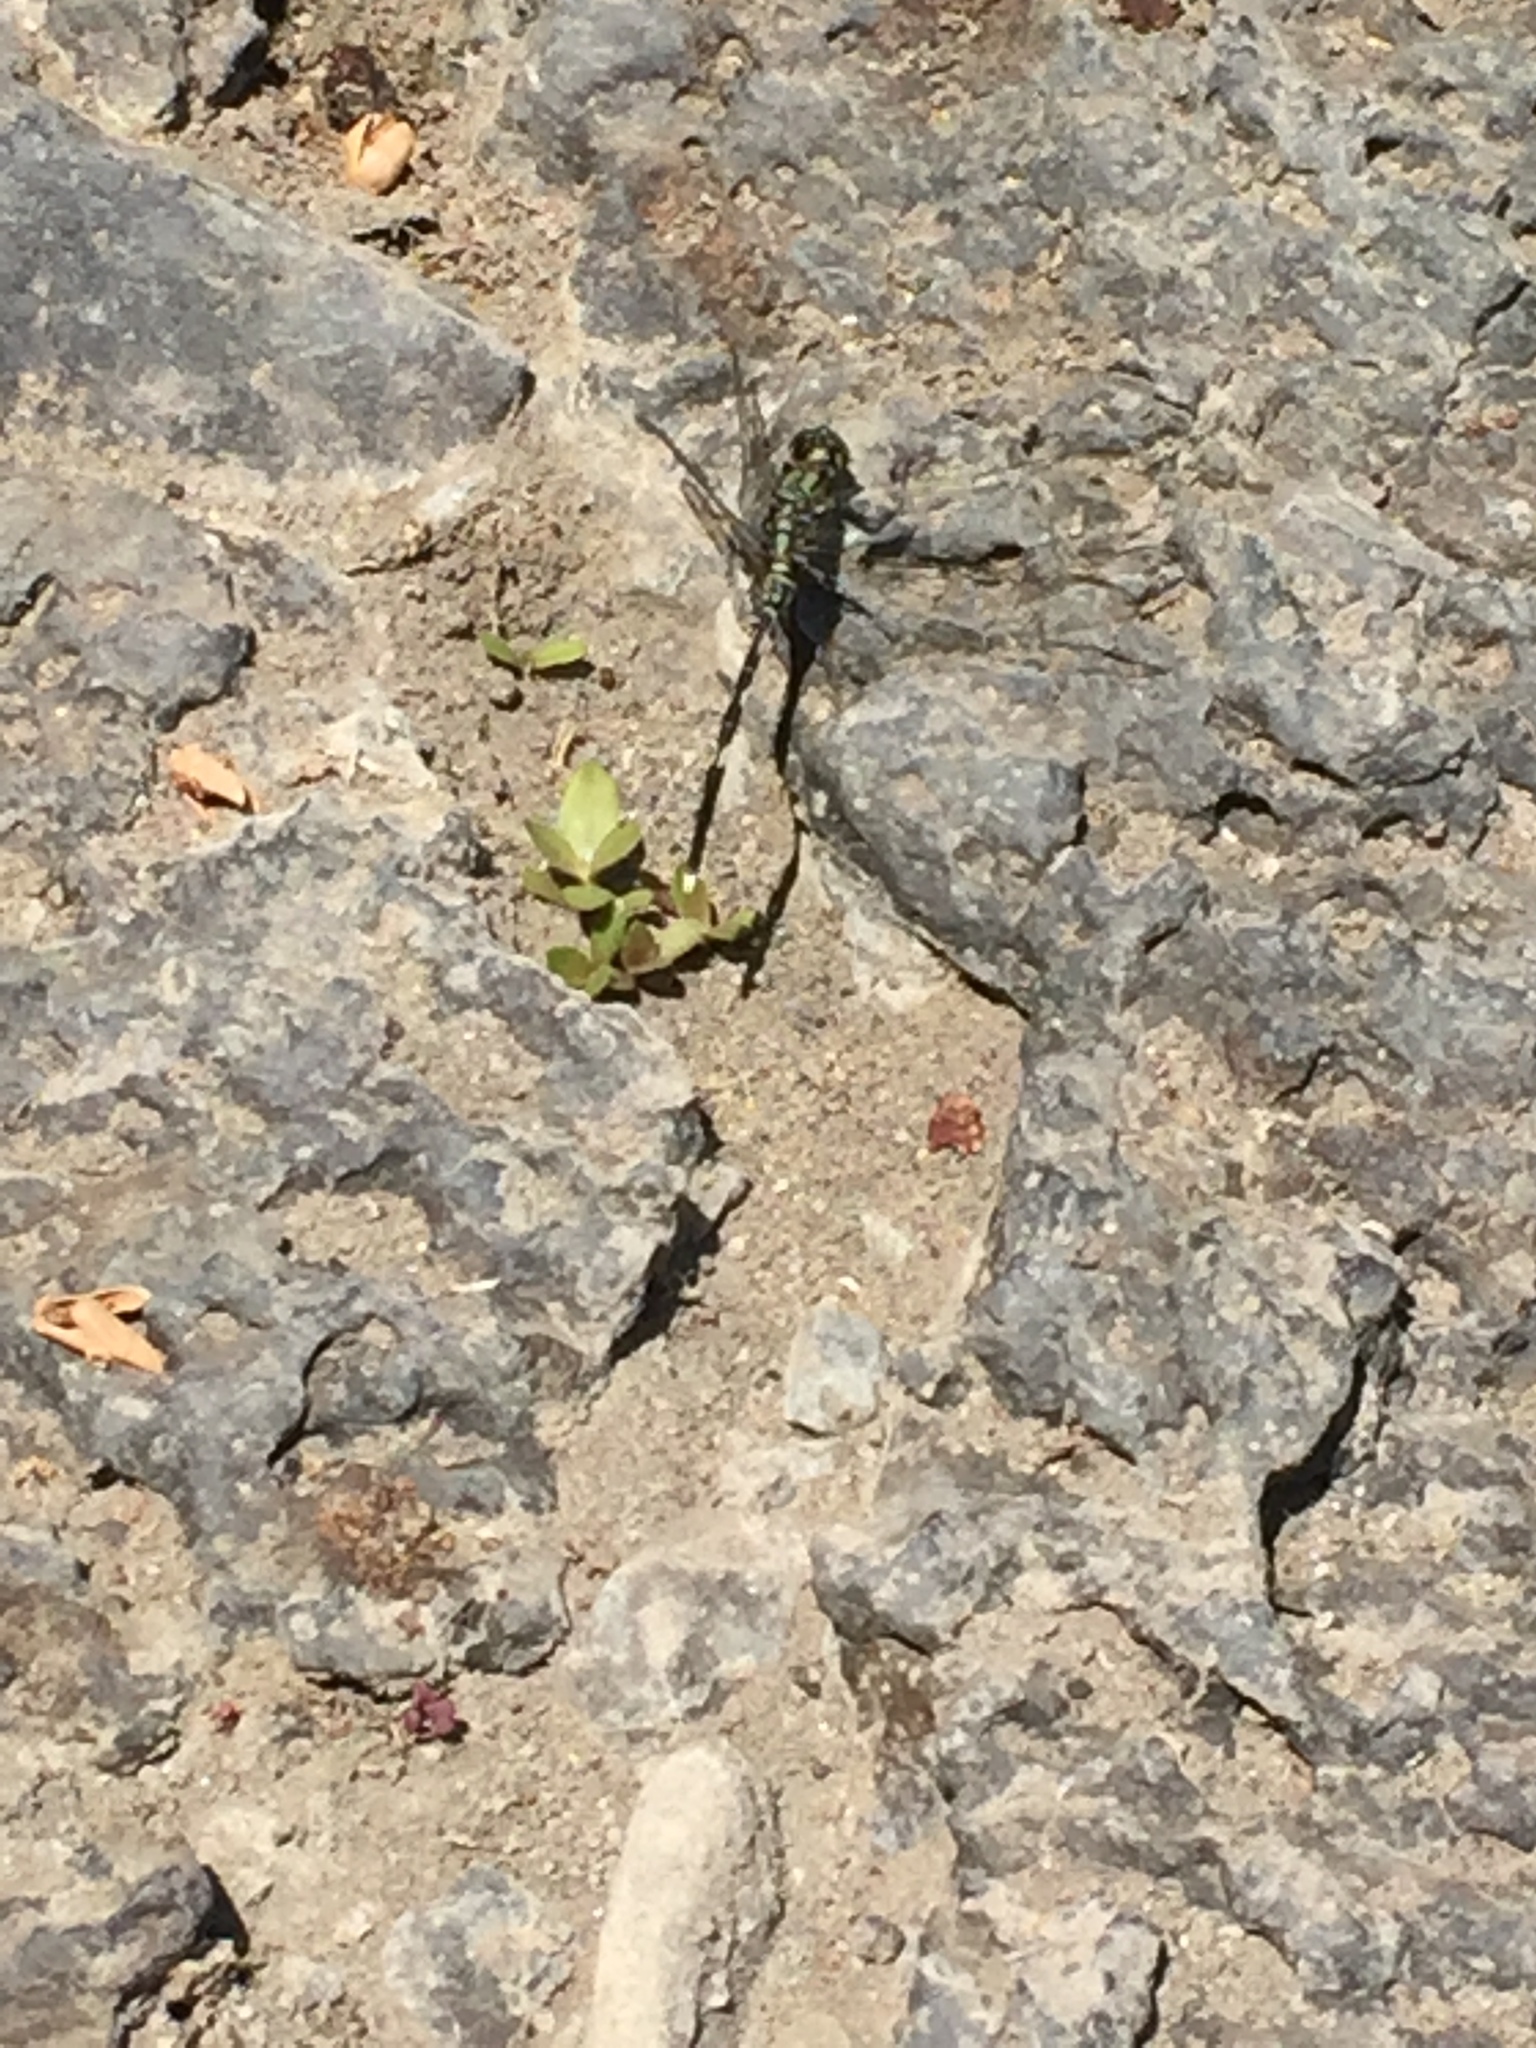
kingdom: Animalia
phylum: Arthropoda
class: Insecta
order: Odonata
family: Libellulidae
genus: Orthetrum
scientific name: Orthetrum sabina
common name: Slender skimmer
